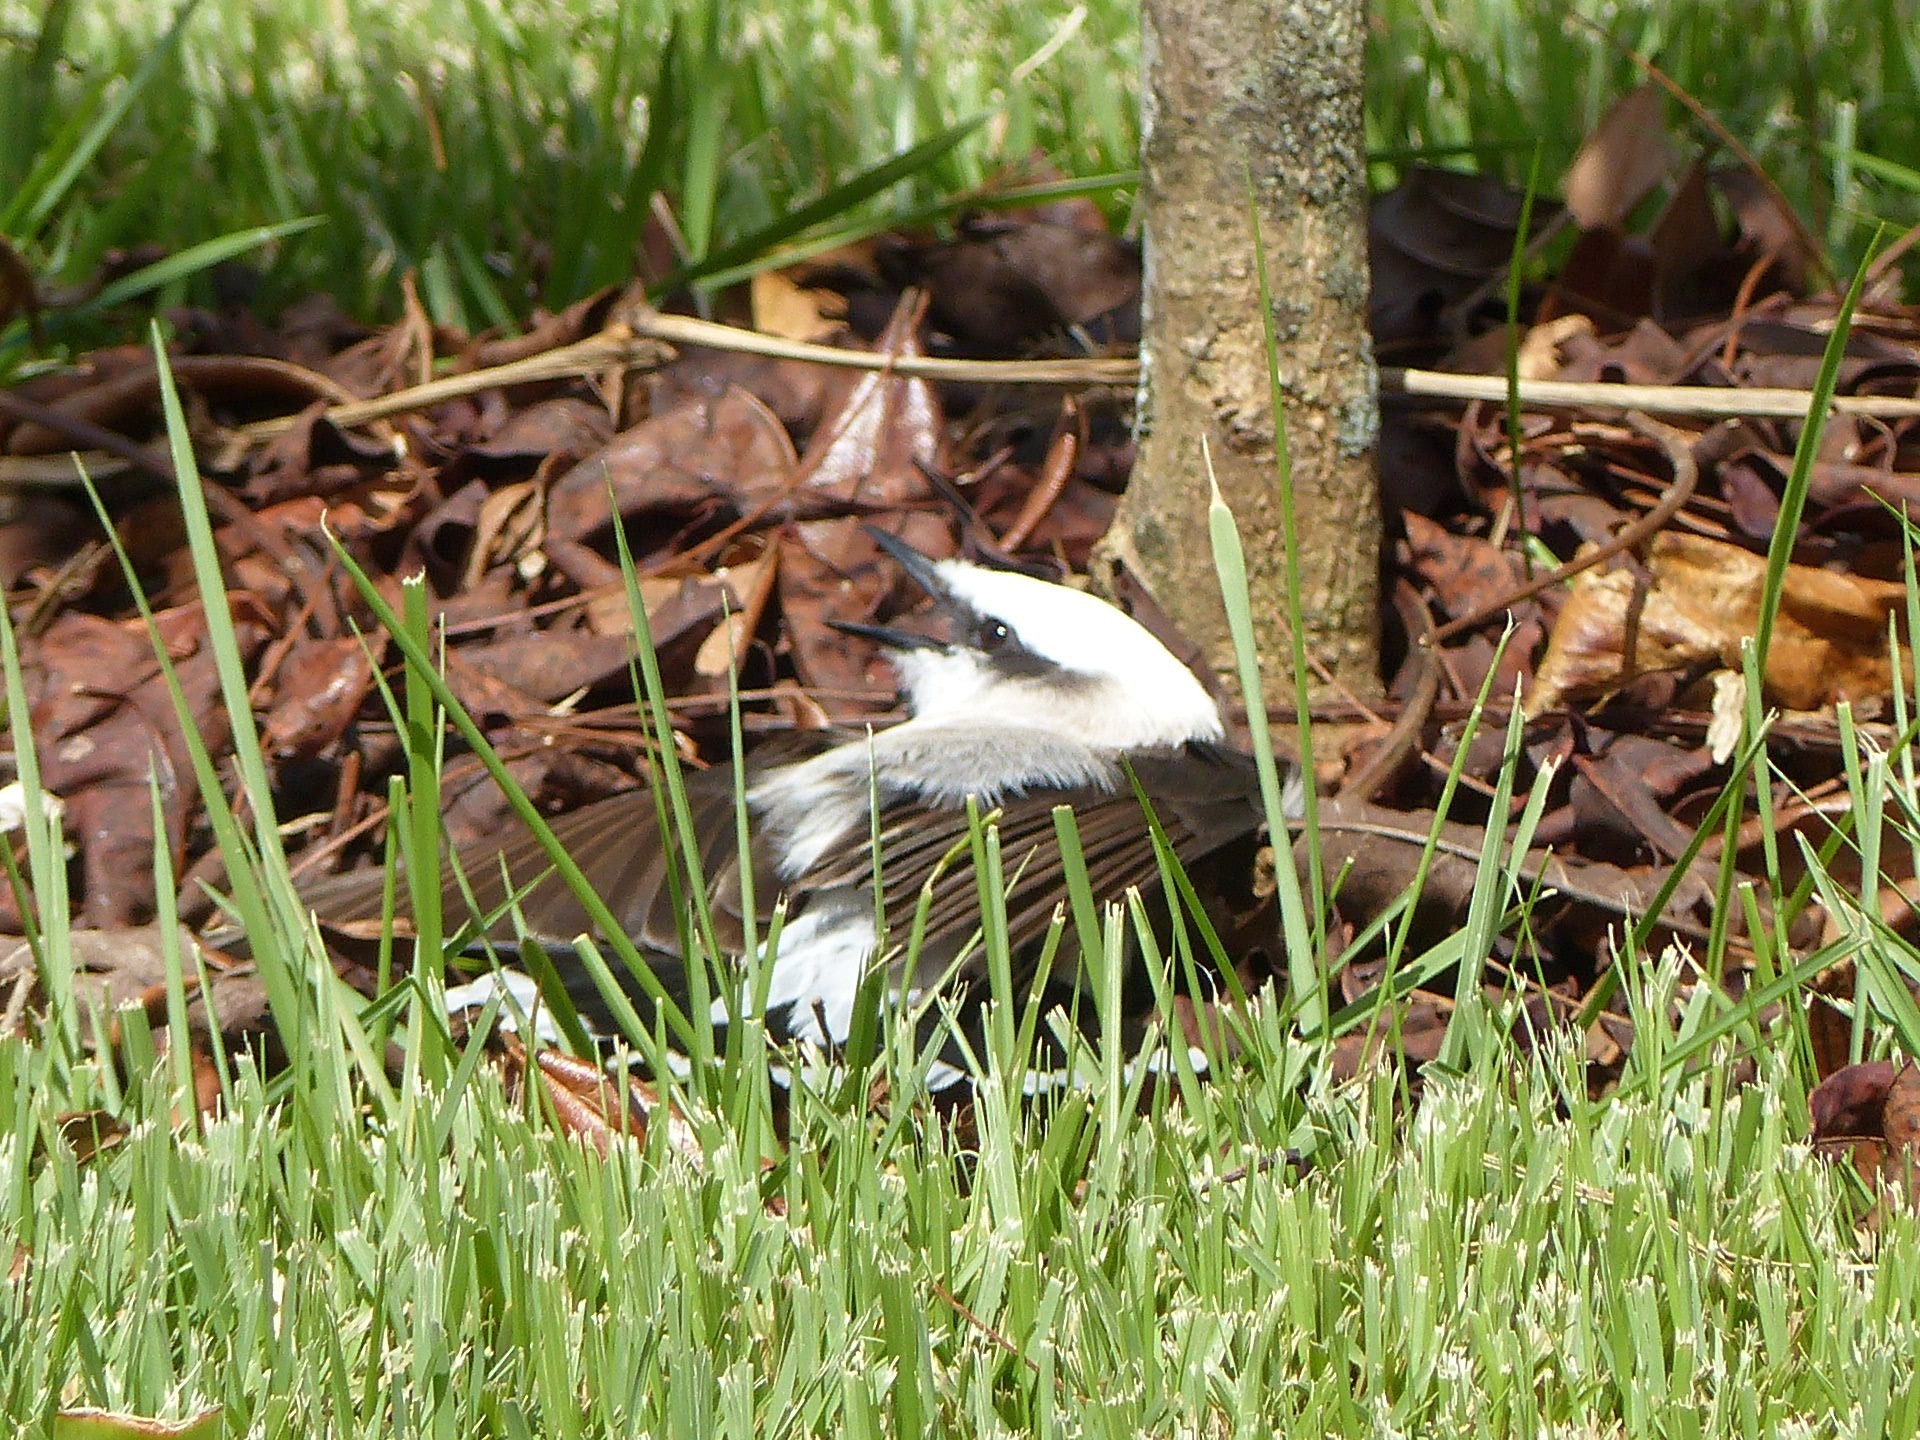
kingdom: Animalia
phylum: Chordata
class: Aves
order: Passeriformes
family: Tyrannidae
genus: Fluvicola
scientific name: Fluvicola nengeta
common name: Masked water tyrant
